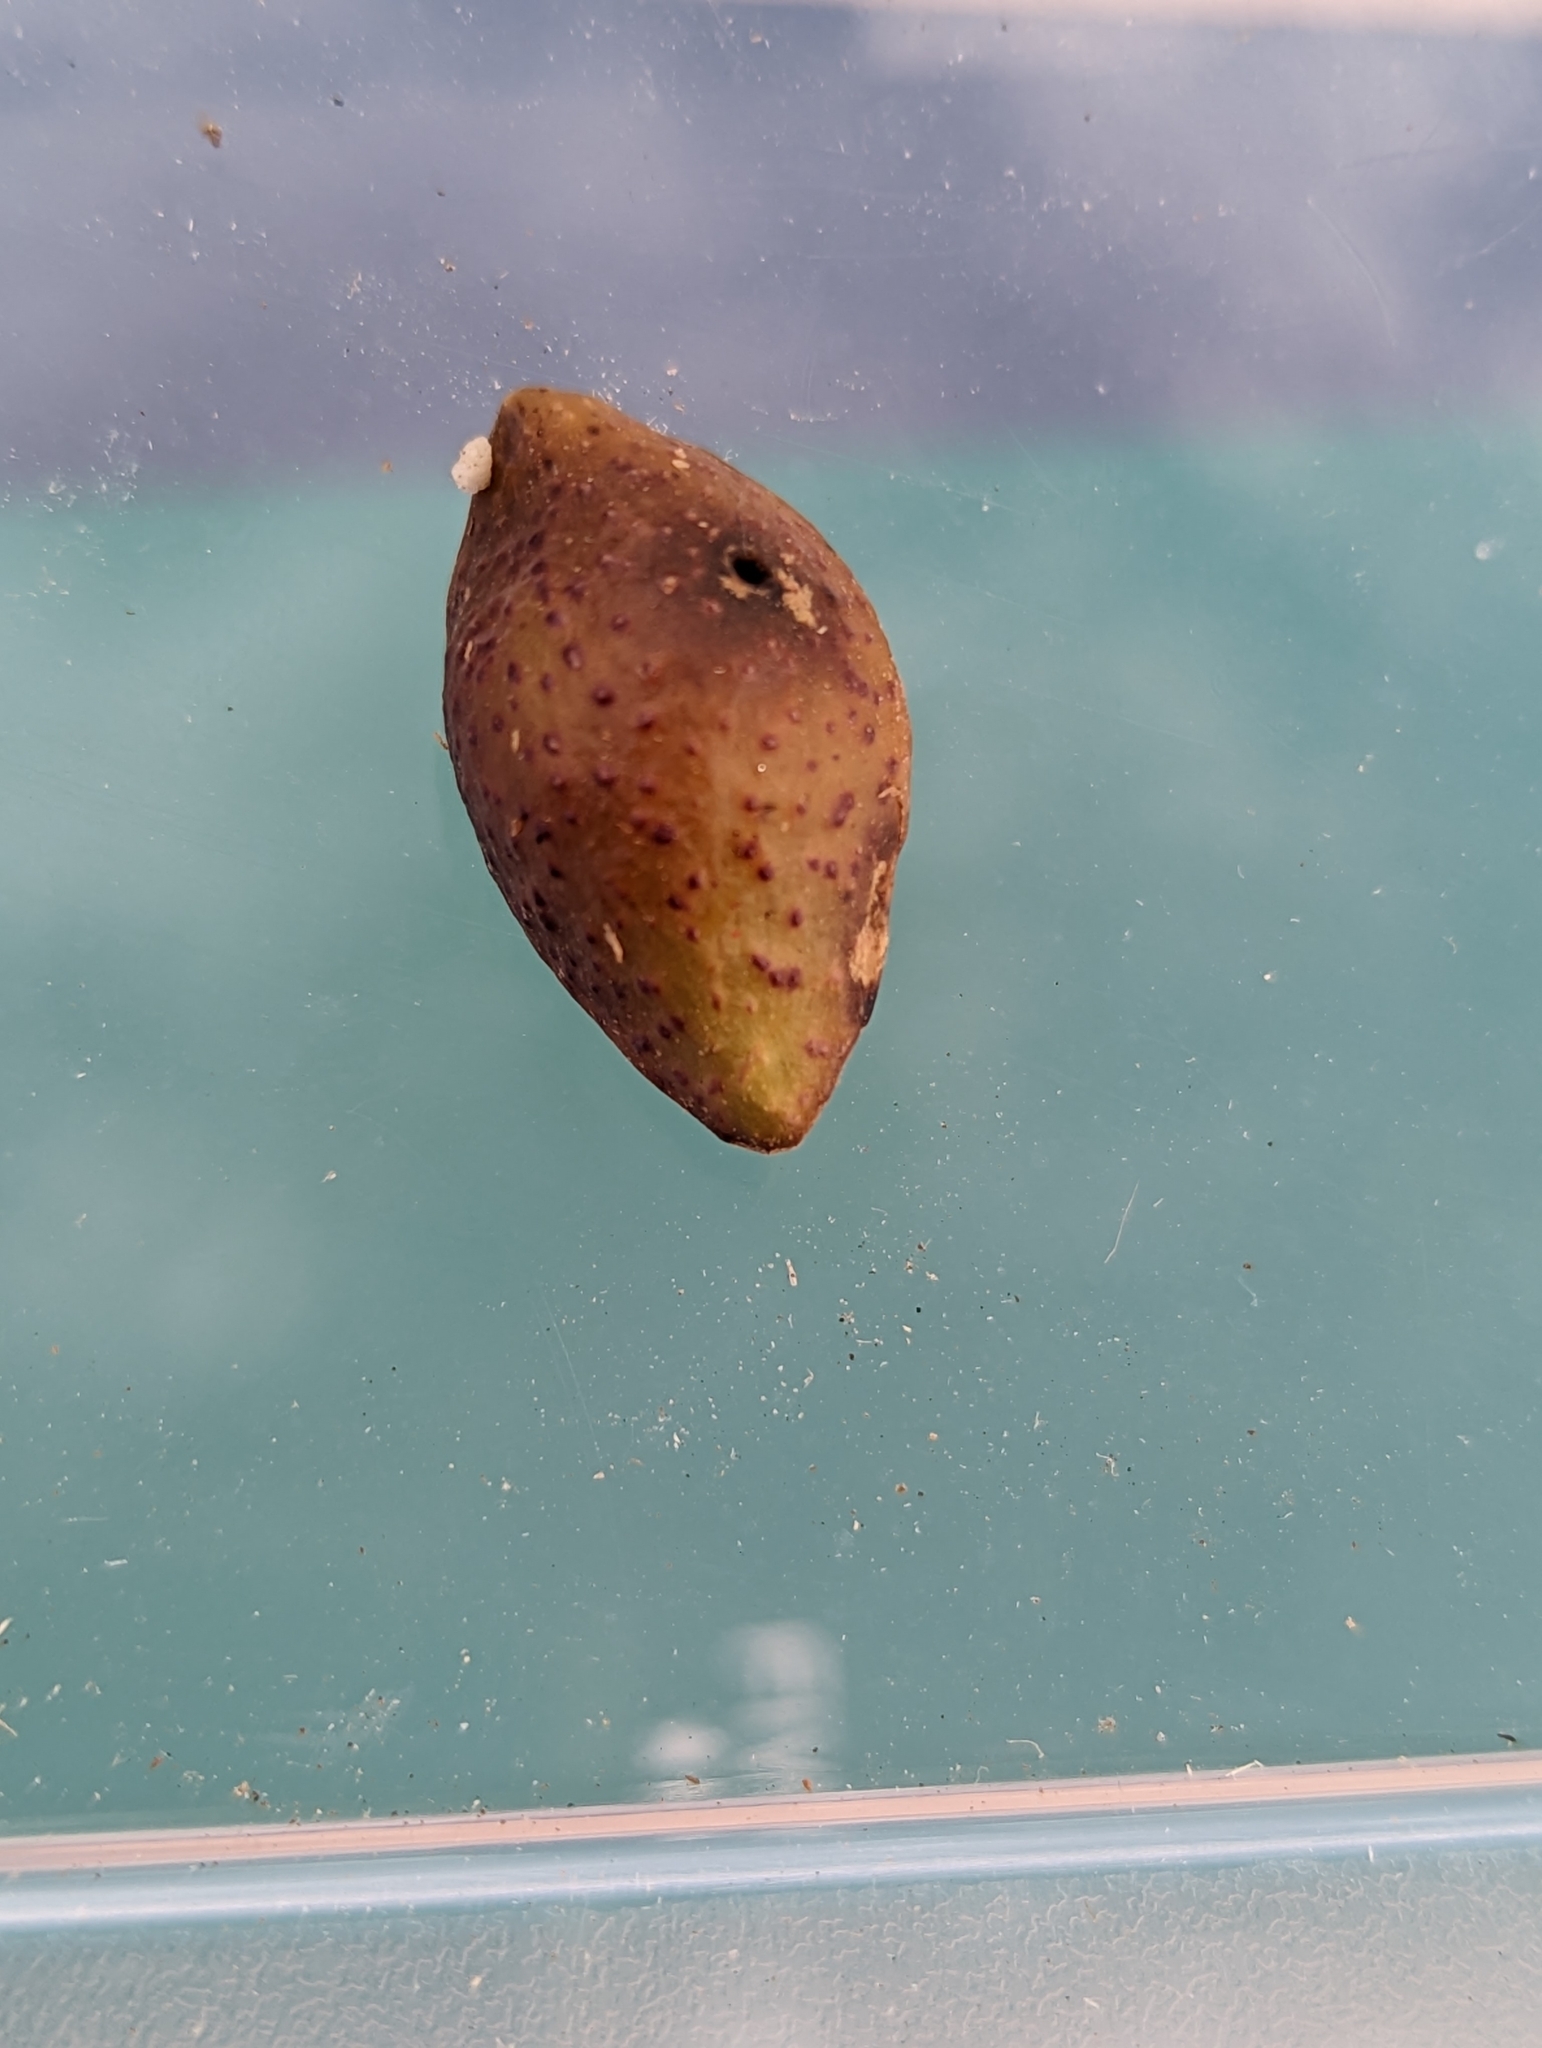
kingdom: Animalia
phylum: Arthropoda
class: Insecta
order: Hymenoptera
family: Cynipidae
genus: Amphibolips
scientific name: Amphibolips
